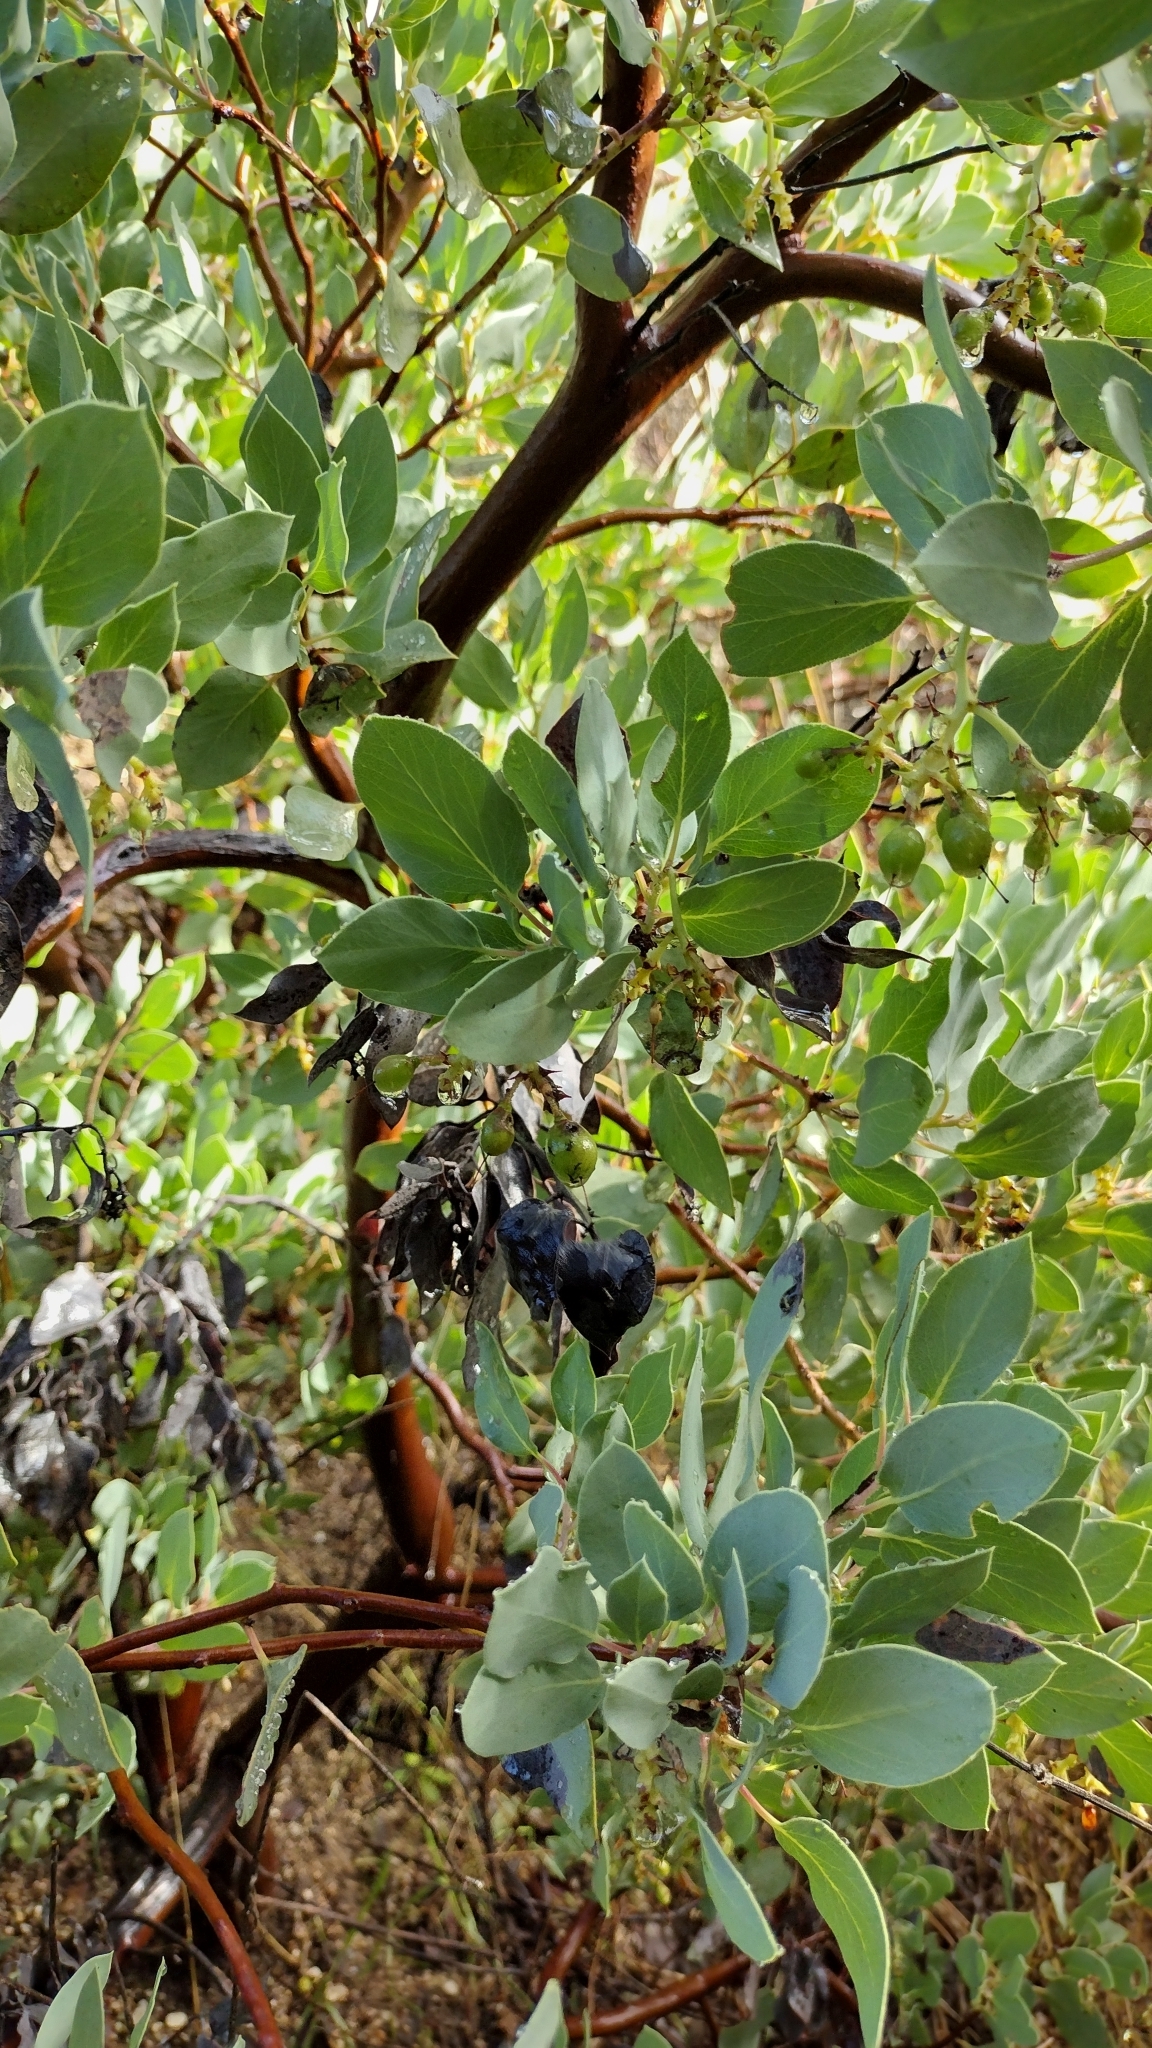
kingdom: Plantae
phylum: Tracheophyta
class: Magnoliopsida
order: Ericales
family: Ericaceae
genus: Arctostaphylos
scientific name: Arctostaphylos glauca
